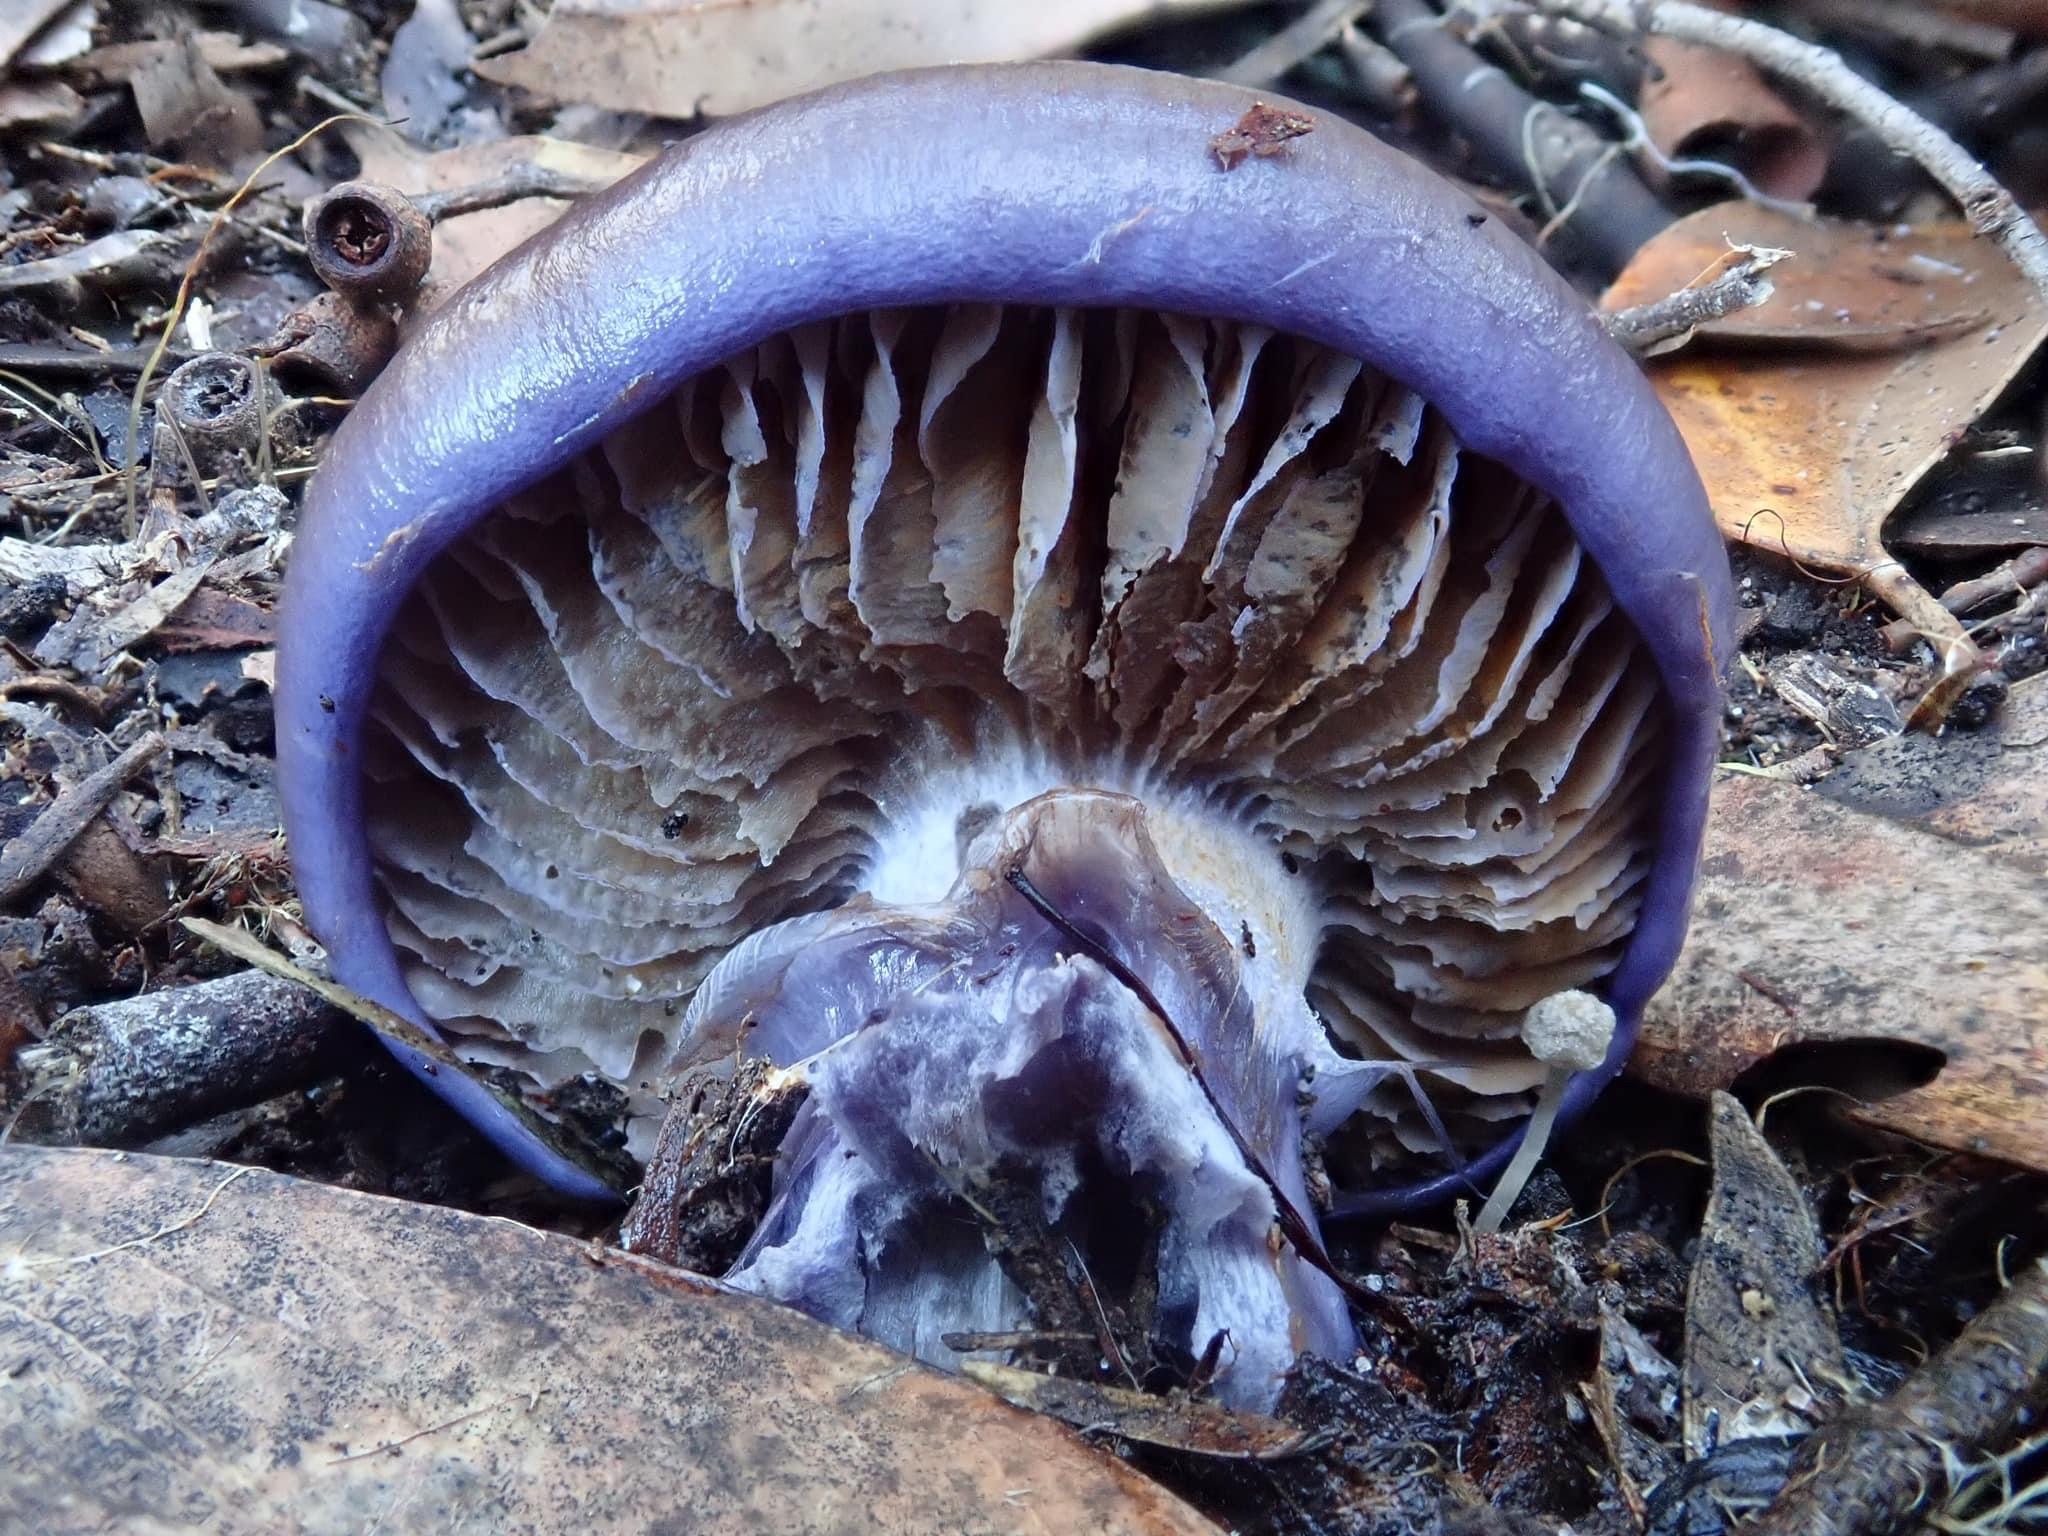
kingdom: Fungi
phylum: Basidiomycota
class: Agaricomycetes
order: Agaricales
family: Cortinariaceae
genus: Cortinarius
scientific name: Cortinarius archeri
